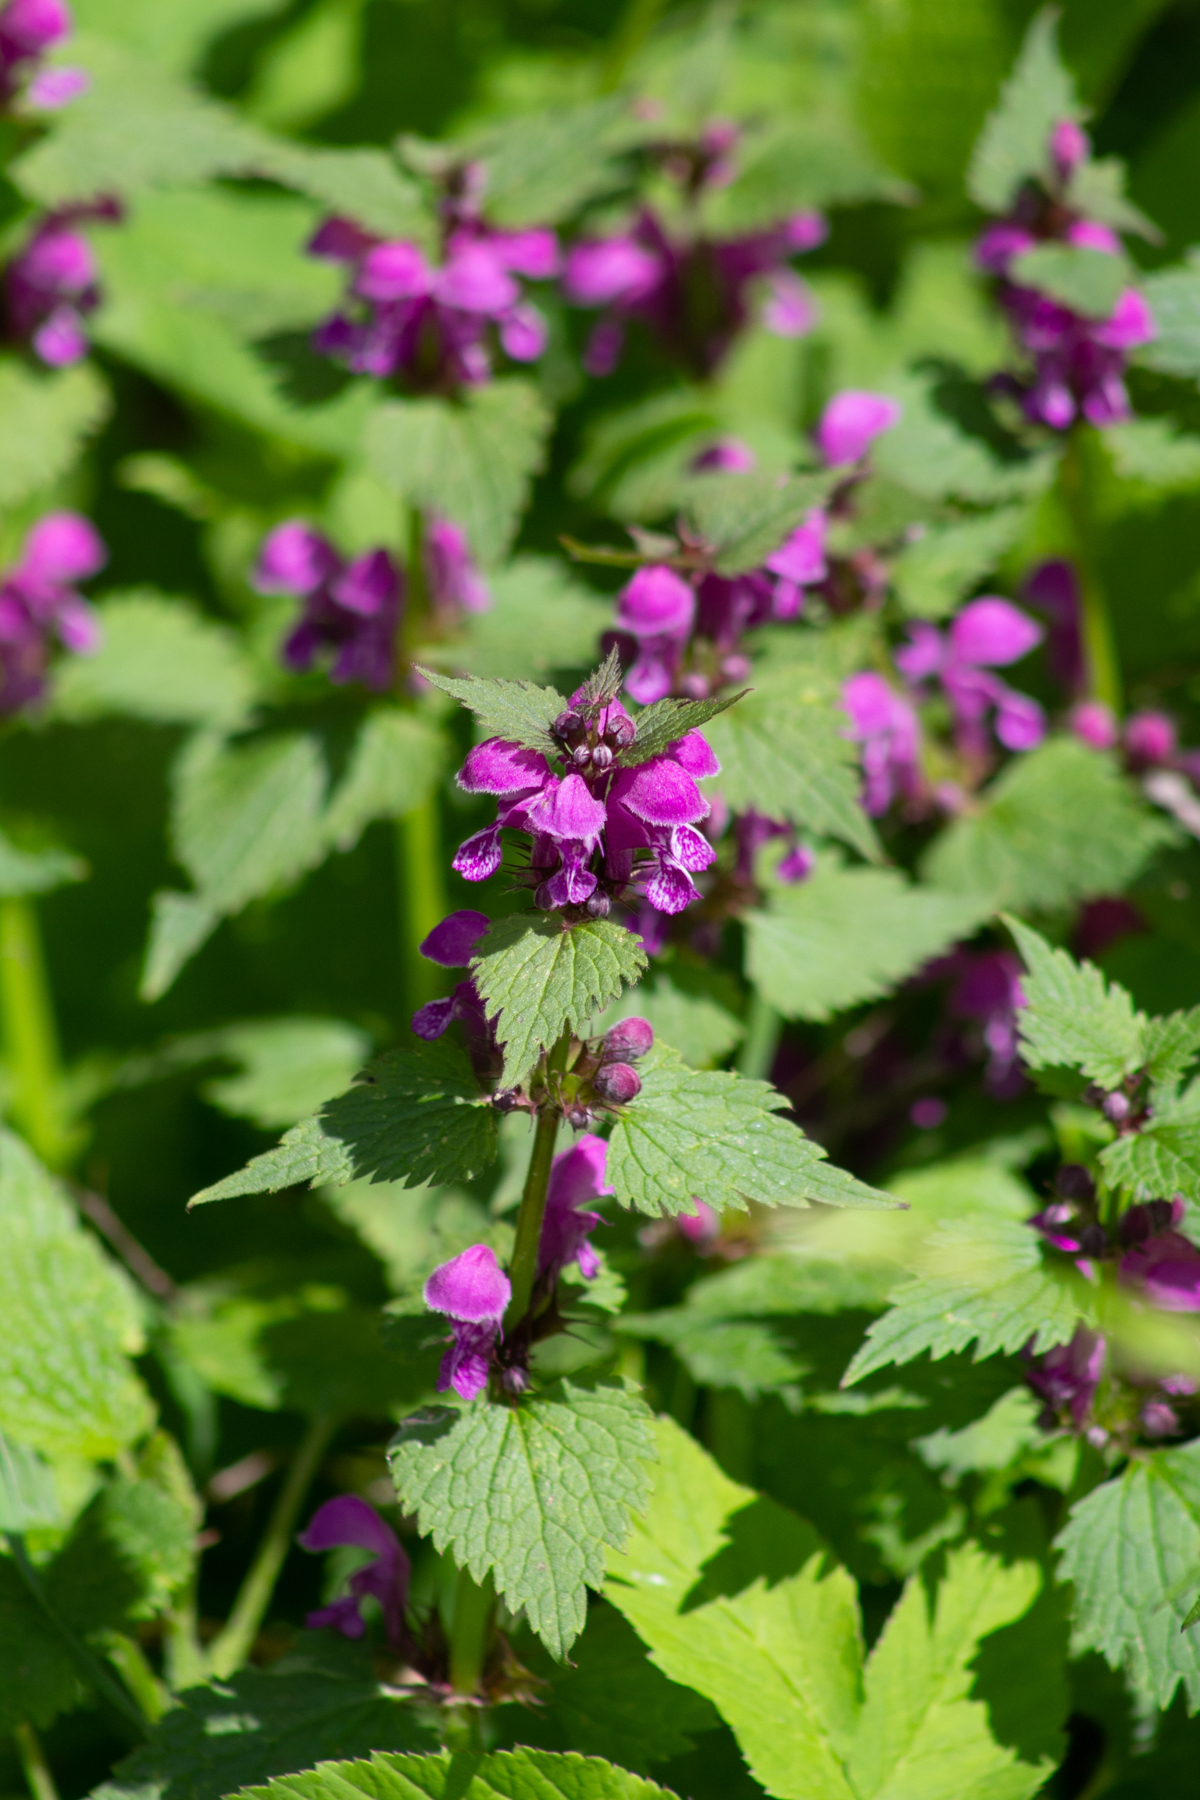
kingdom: Plantae
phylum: Tracheophyta
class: Magnoliopsida
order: Lamiales
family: Lamiaceae
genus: Lamium
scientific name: Lamium maculatum
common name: Spotted dead-nettle
